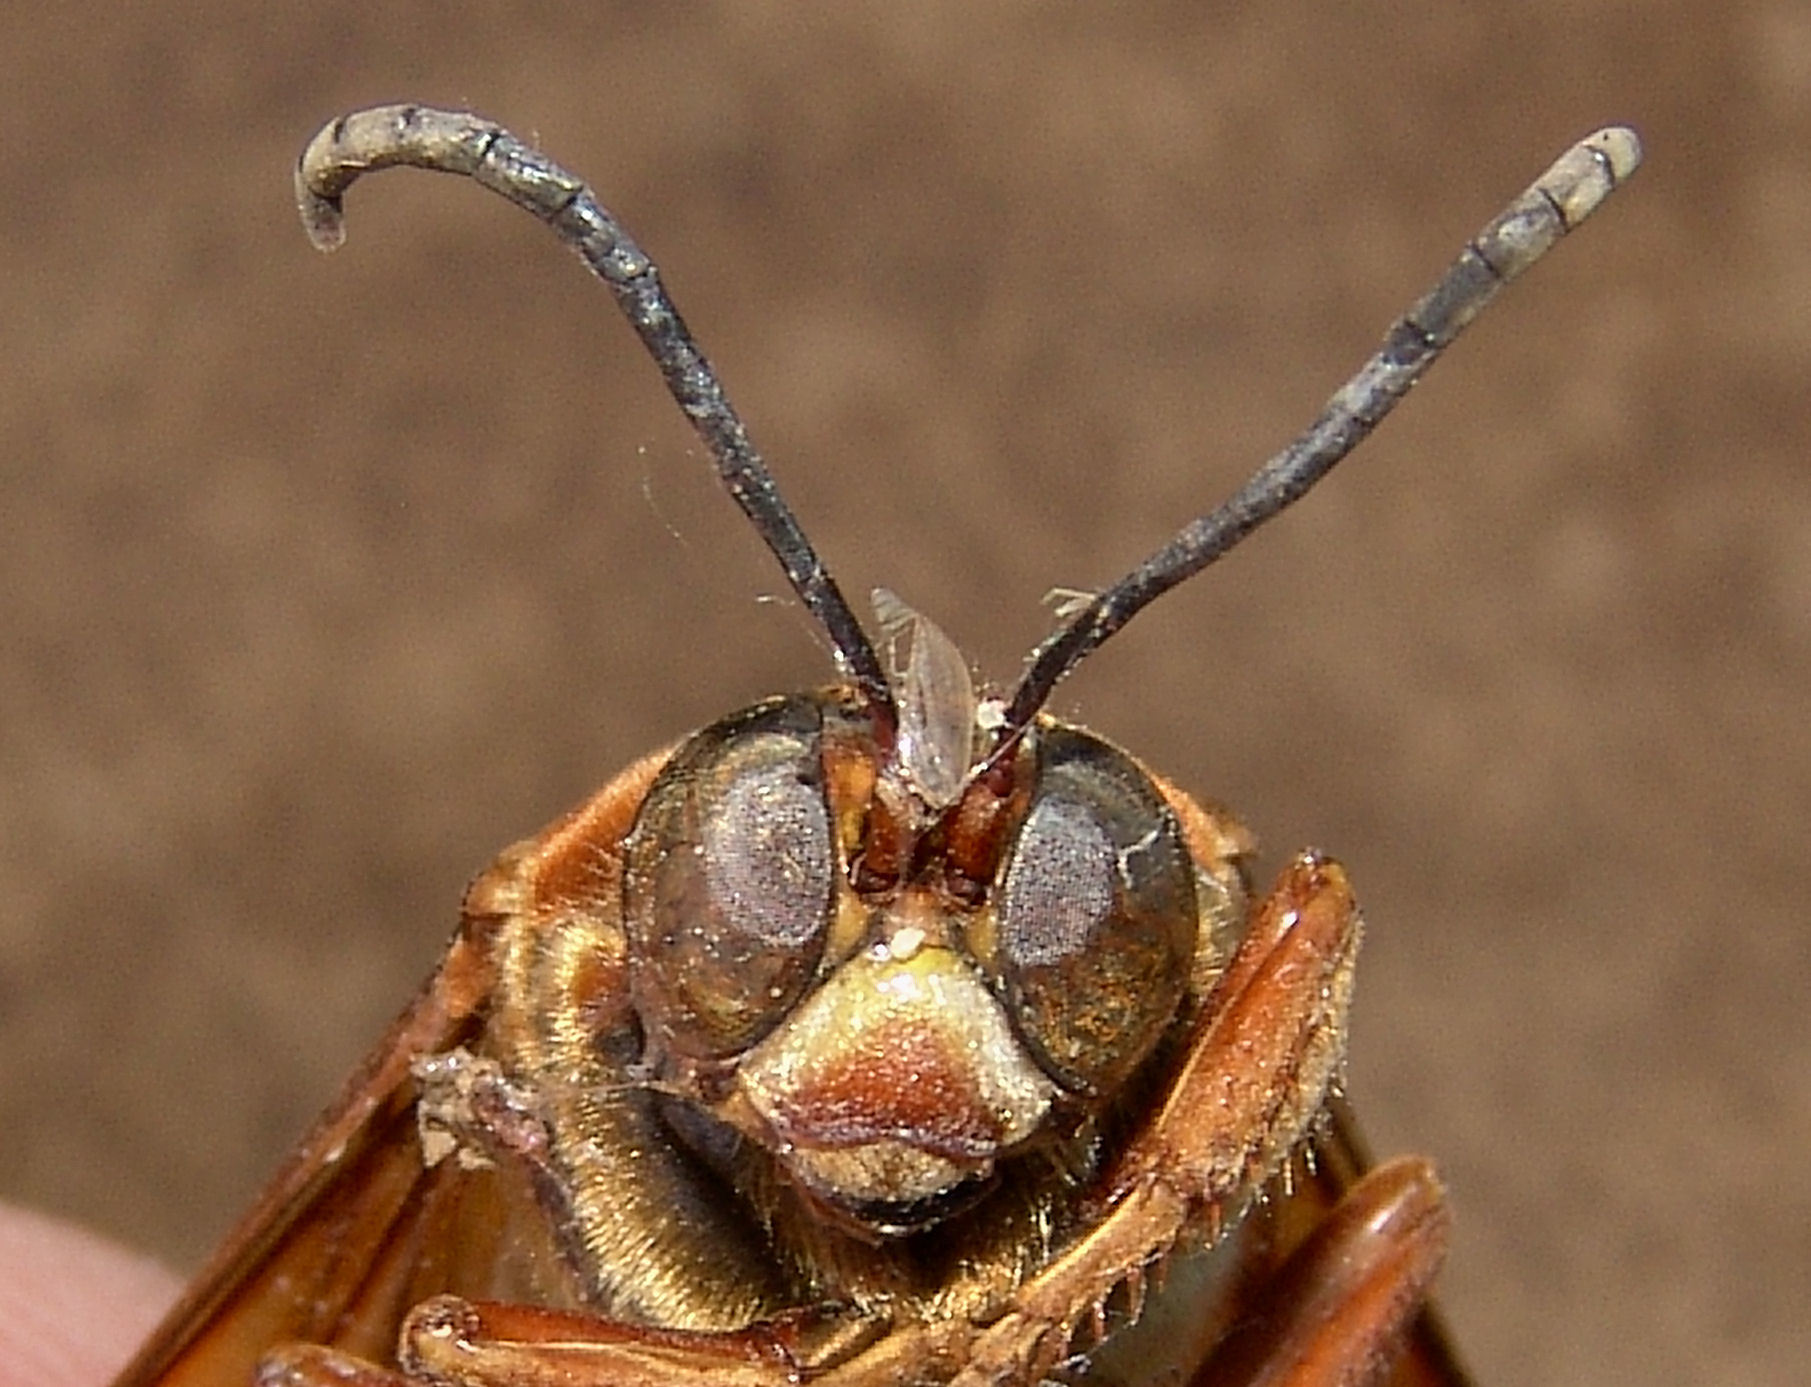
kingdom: Animalia
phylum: Arthropoda
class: Insecta
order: Hymenoptera
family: Crabronidae
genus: Sphecius
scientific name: Sphecius speciosus
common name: Cicada killer
